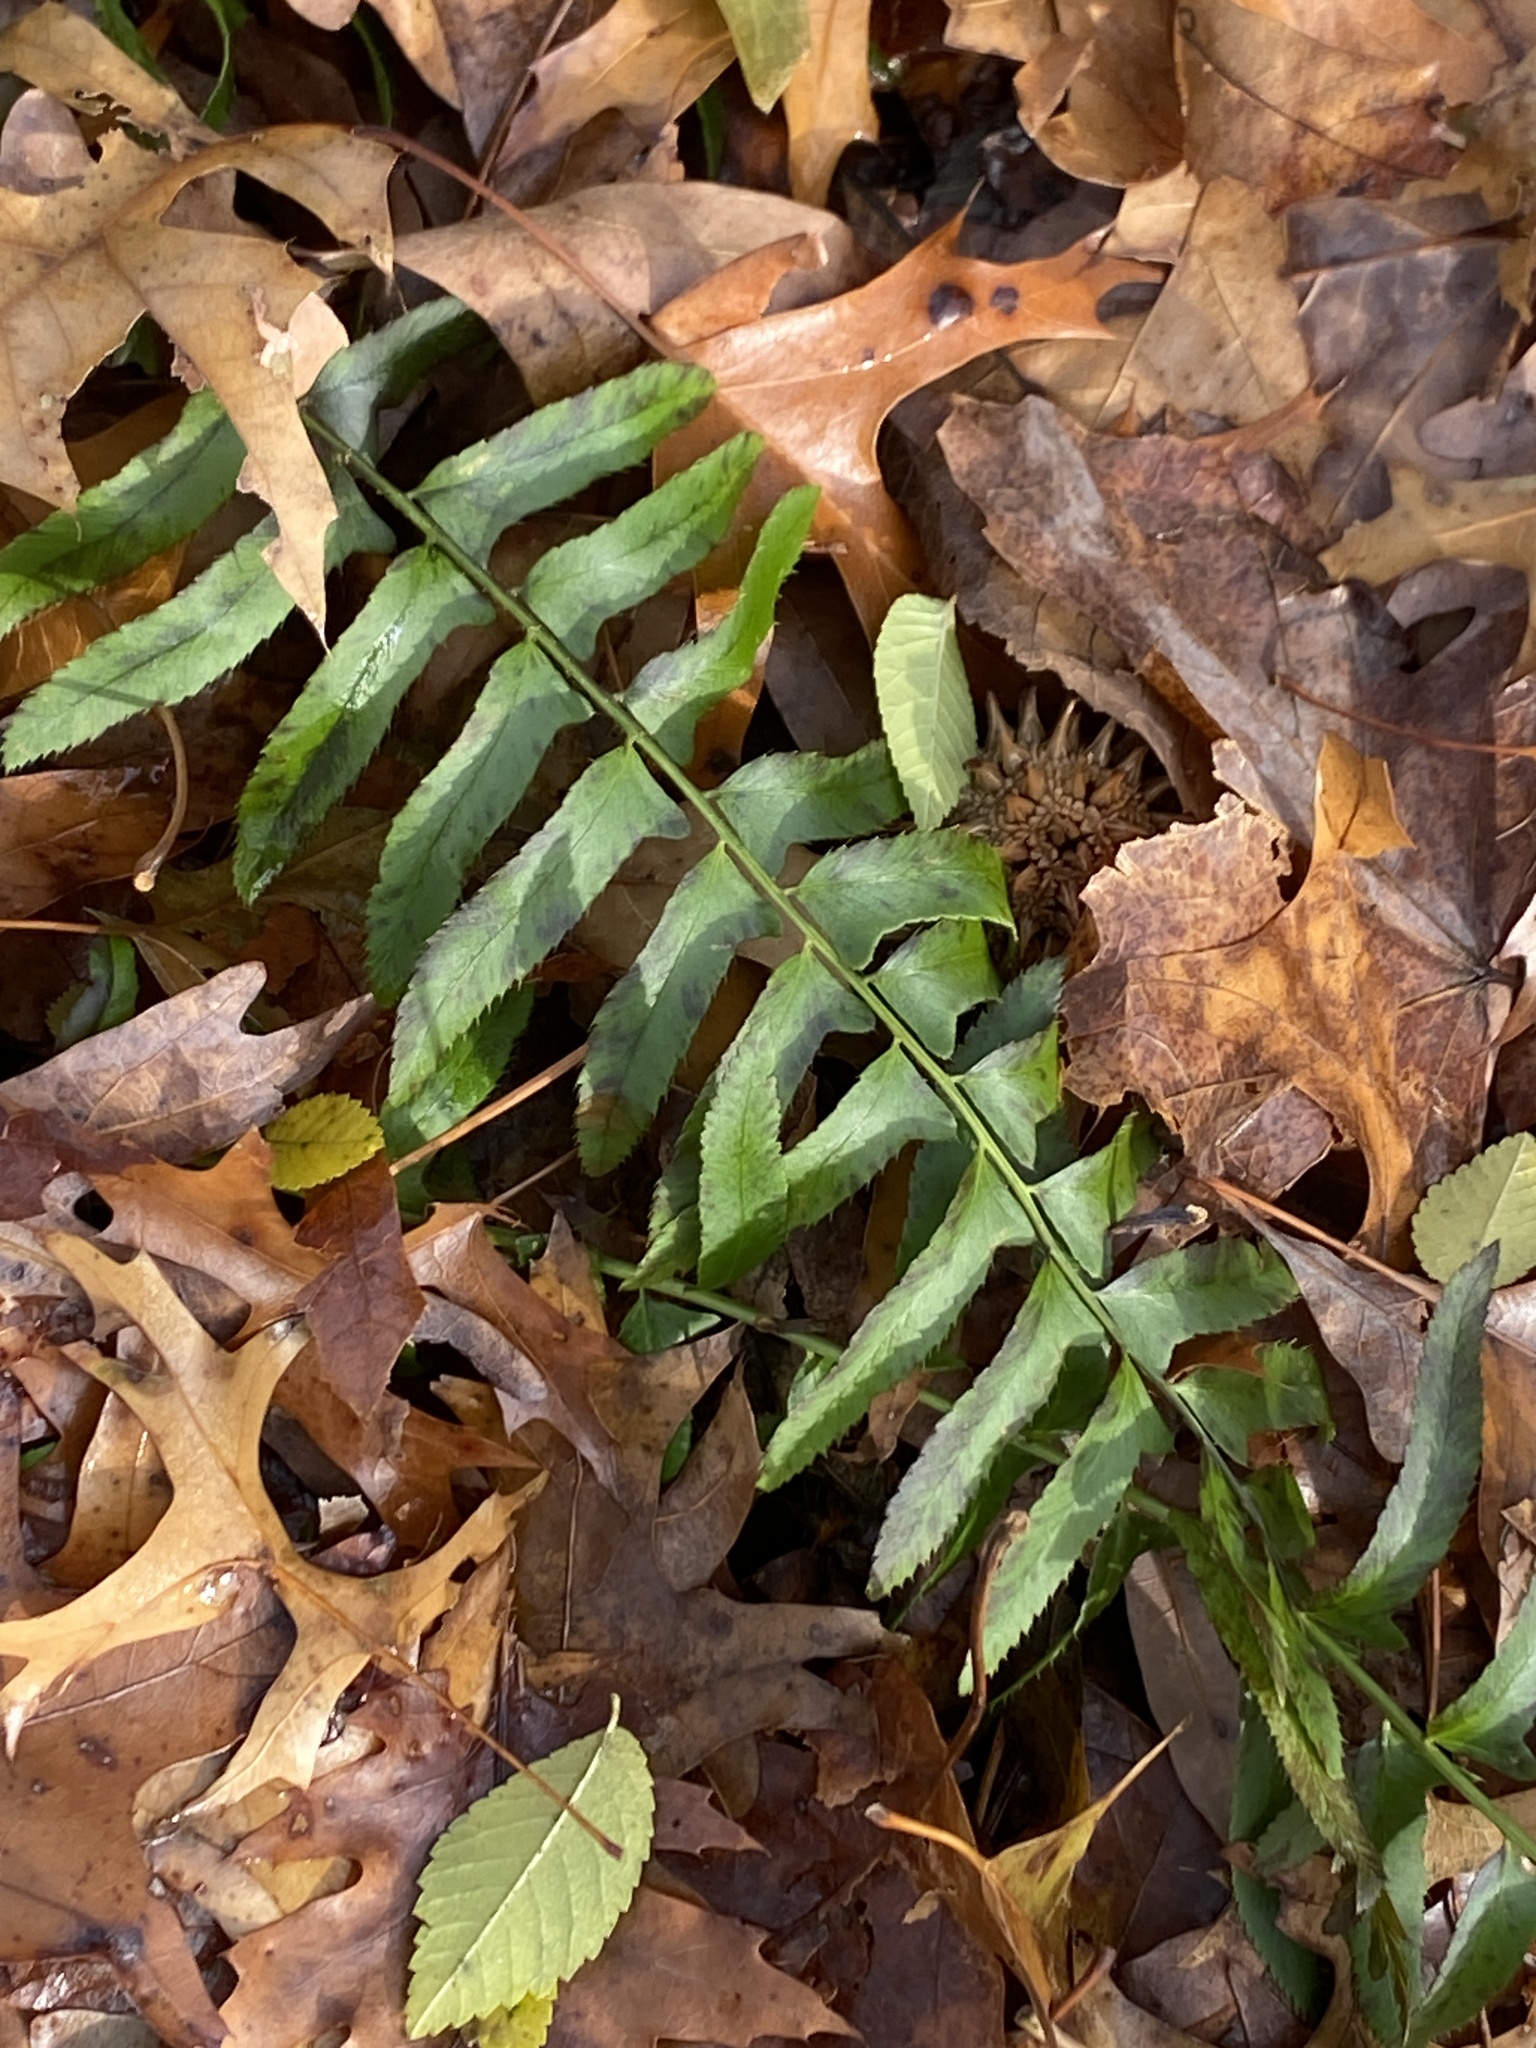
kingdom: Plantae
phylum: Tracheophyta
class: Polypodiopsida
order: Polypodiales
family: Dryopteridaceae
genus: Polystichum
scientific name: Polystichum acrostichoides
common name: Christmas fern
